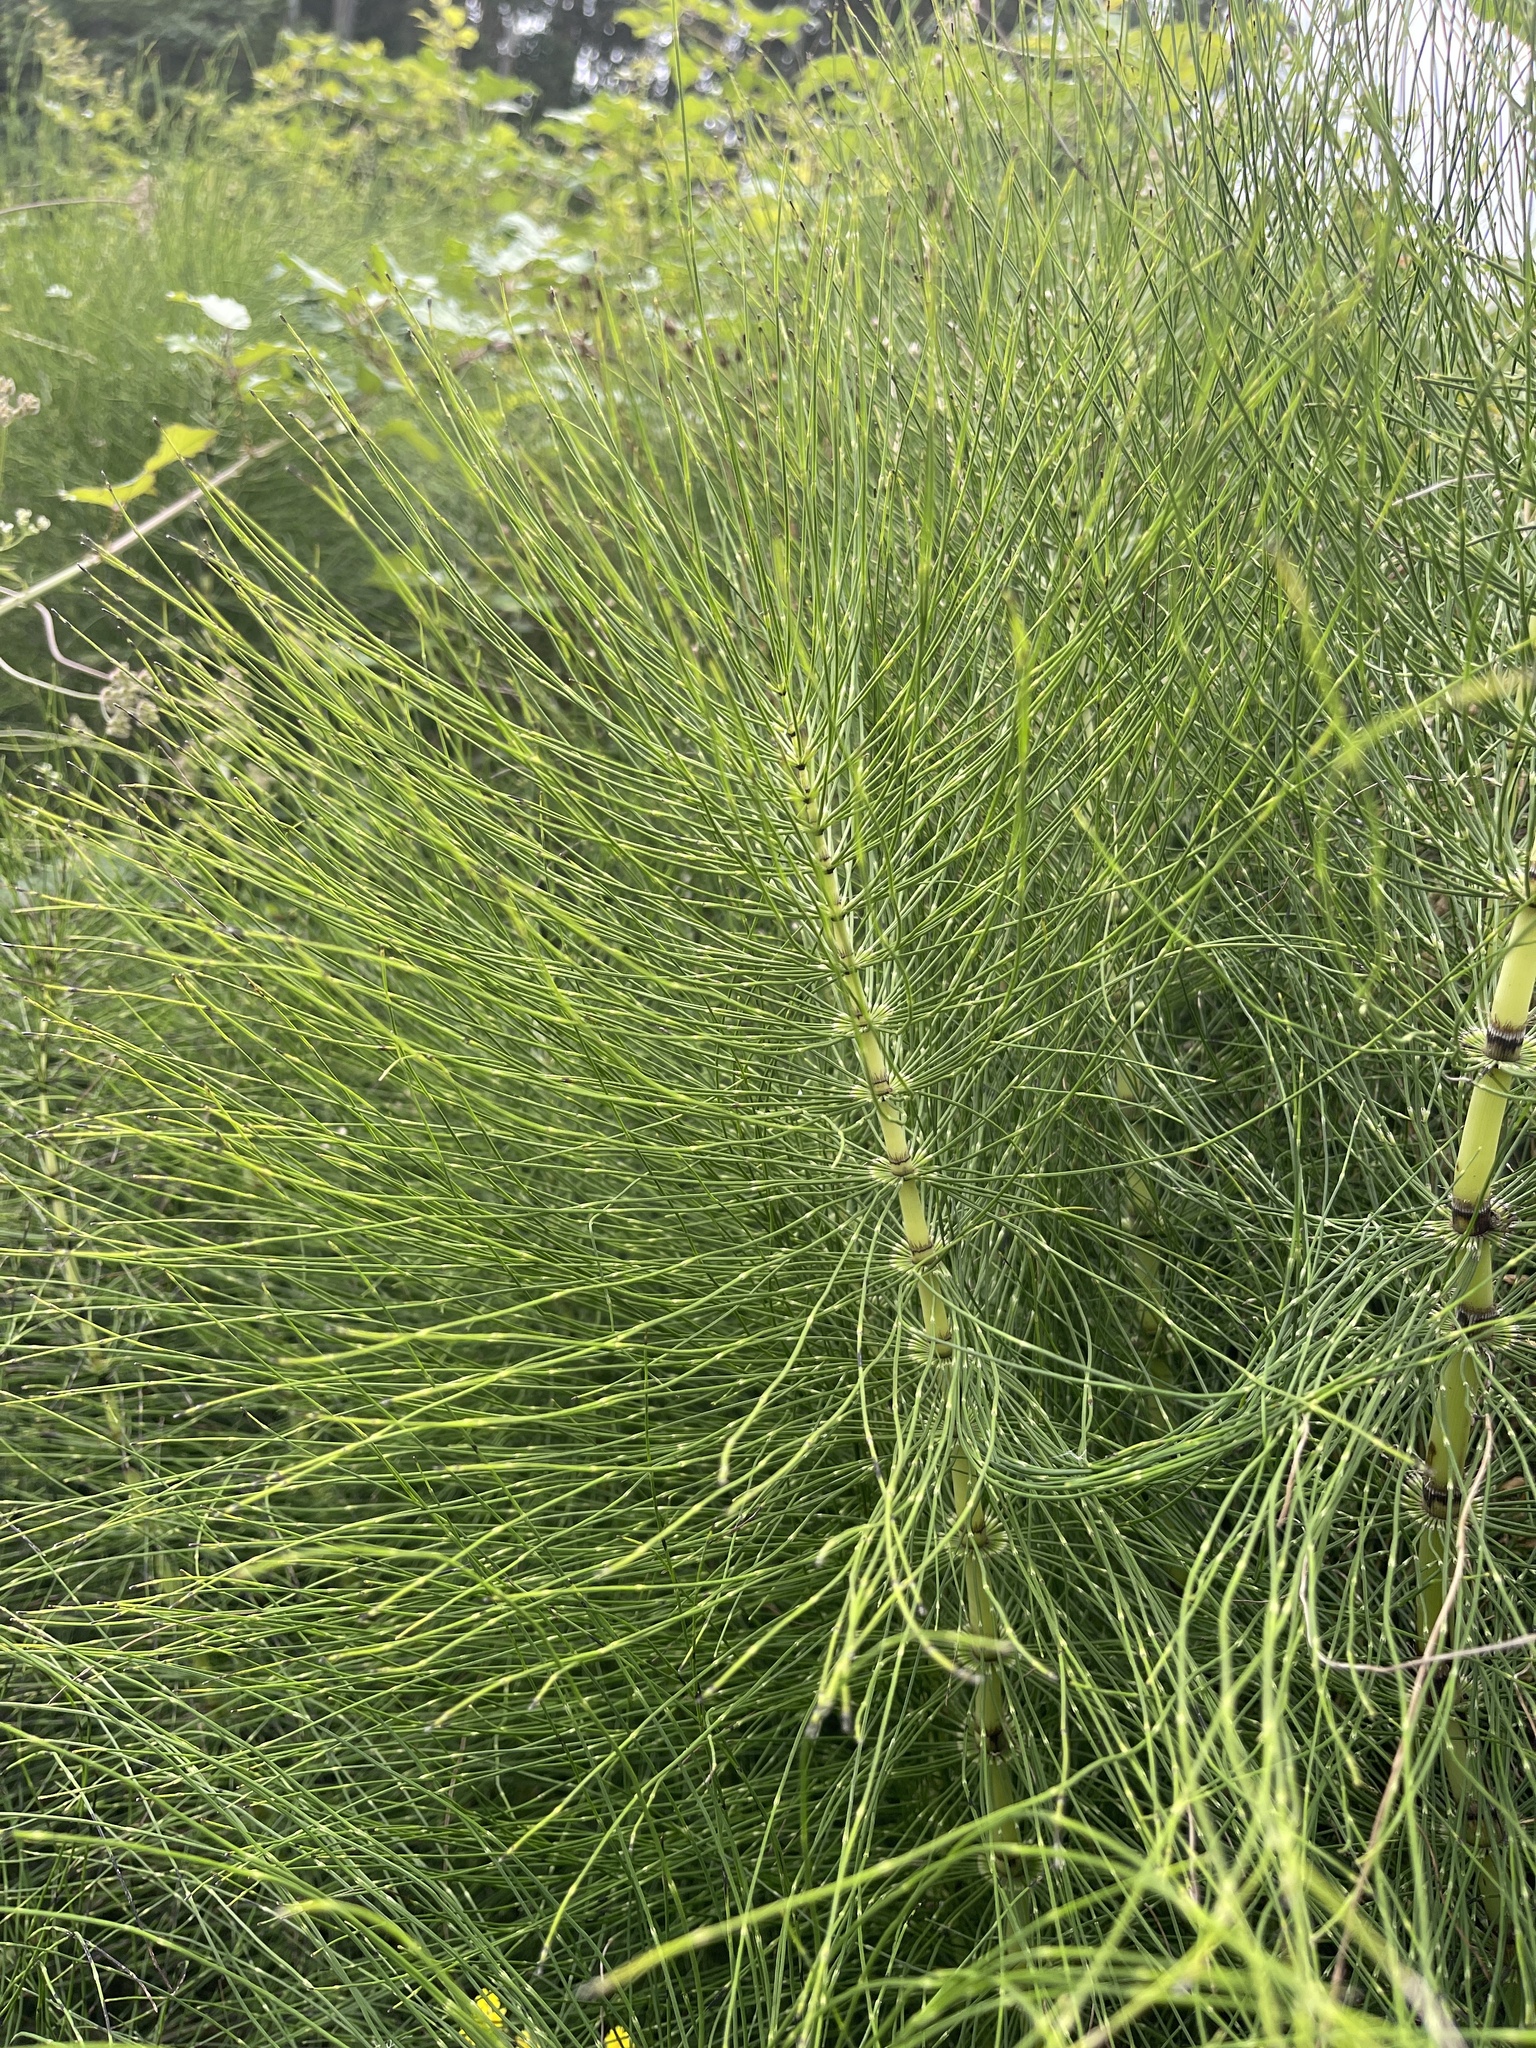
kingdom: Plantae
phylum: Tracheophyta
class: Polypodiopsida
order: Equisetales
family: Equisetaceae
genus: Equisetum
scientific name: Equisetum telmateia
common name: Great horsetail
